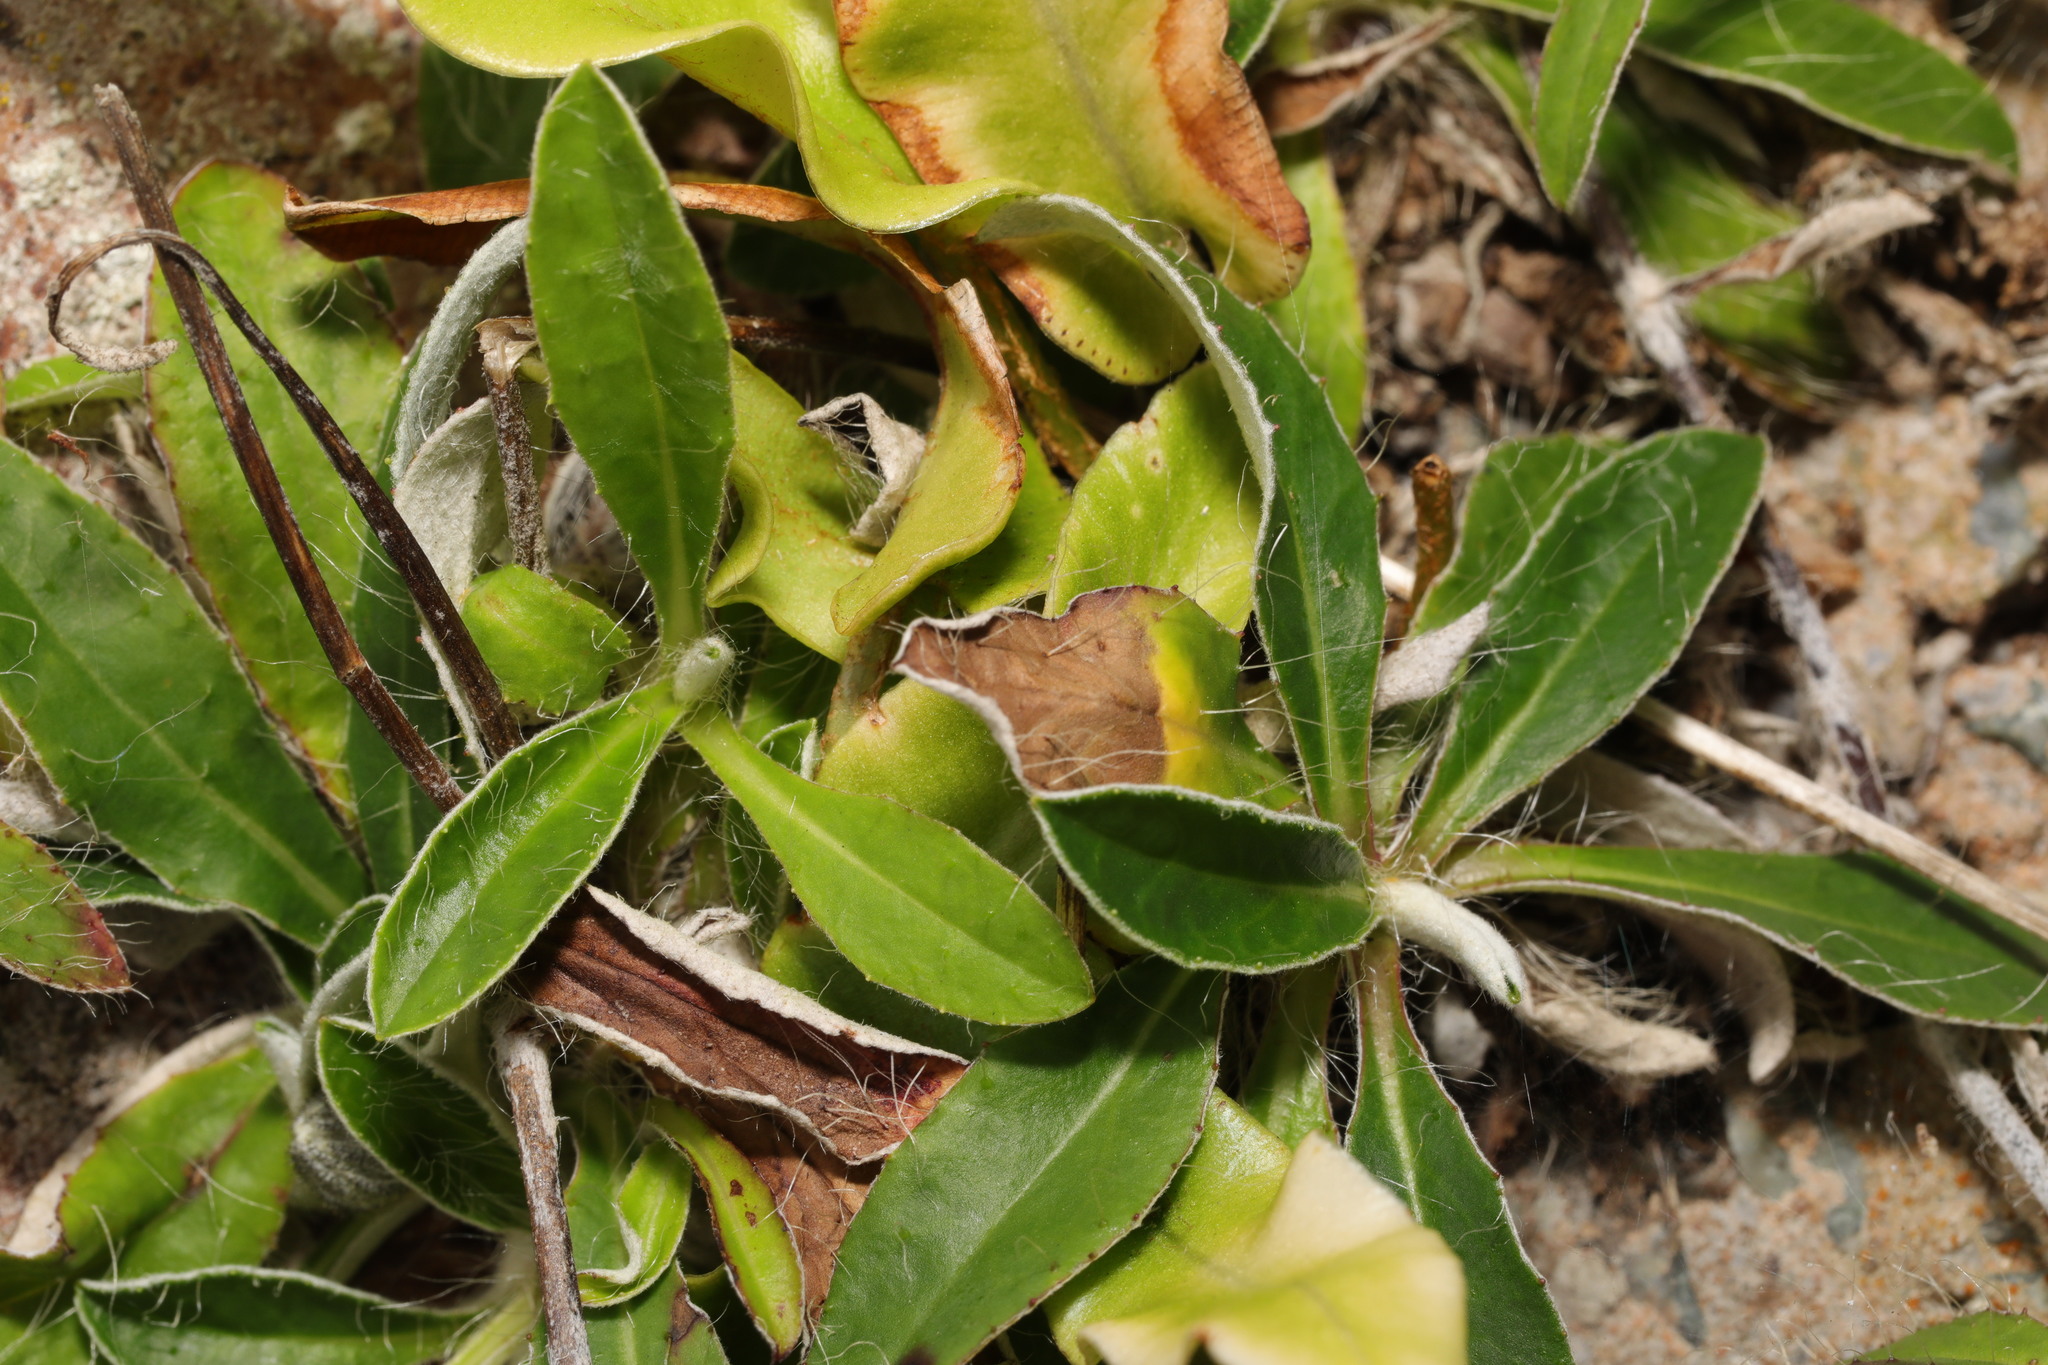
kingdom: Plantae
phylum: Tracheophyta
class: Magnoliopsida
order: Asterales
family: Asteraceae
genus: Pilosella
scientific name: Pilosella officinarum
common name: Mouse-ear hawkweed
